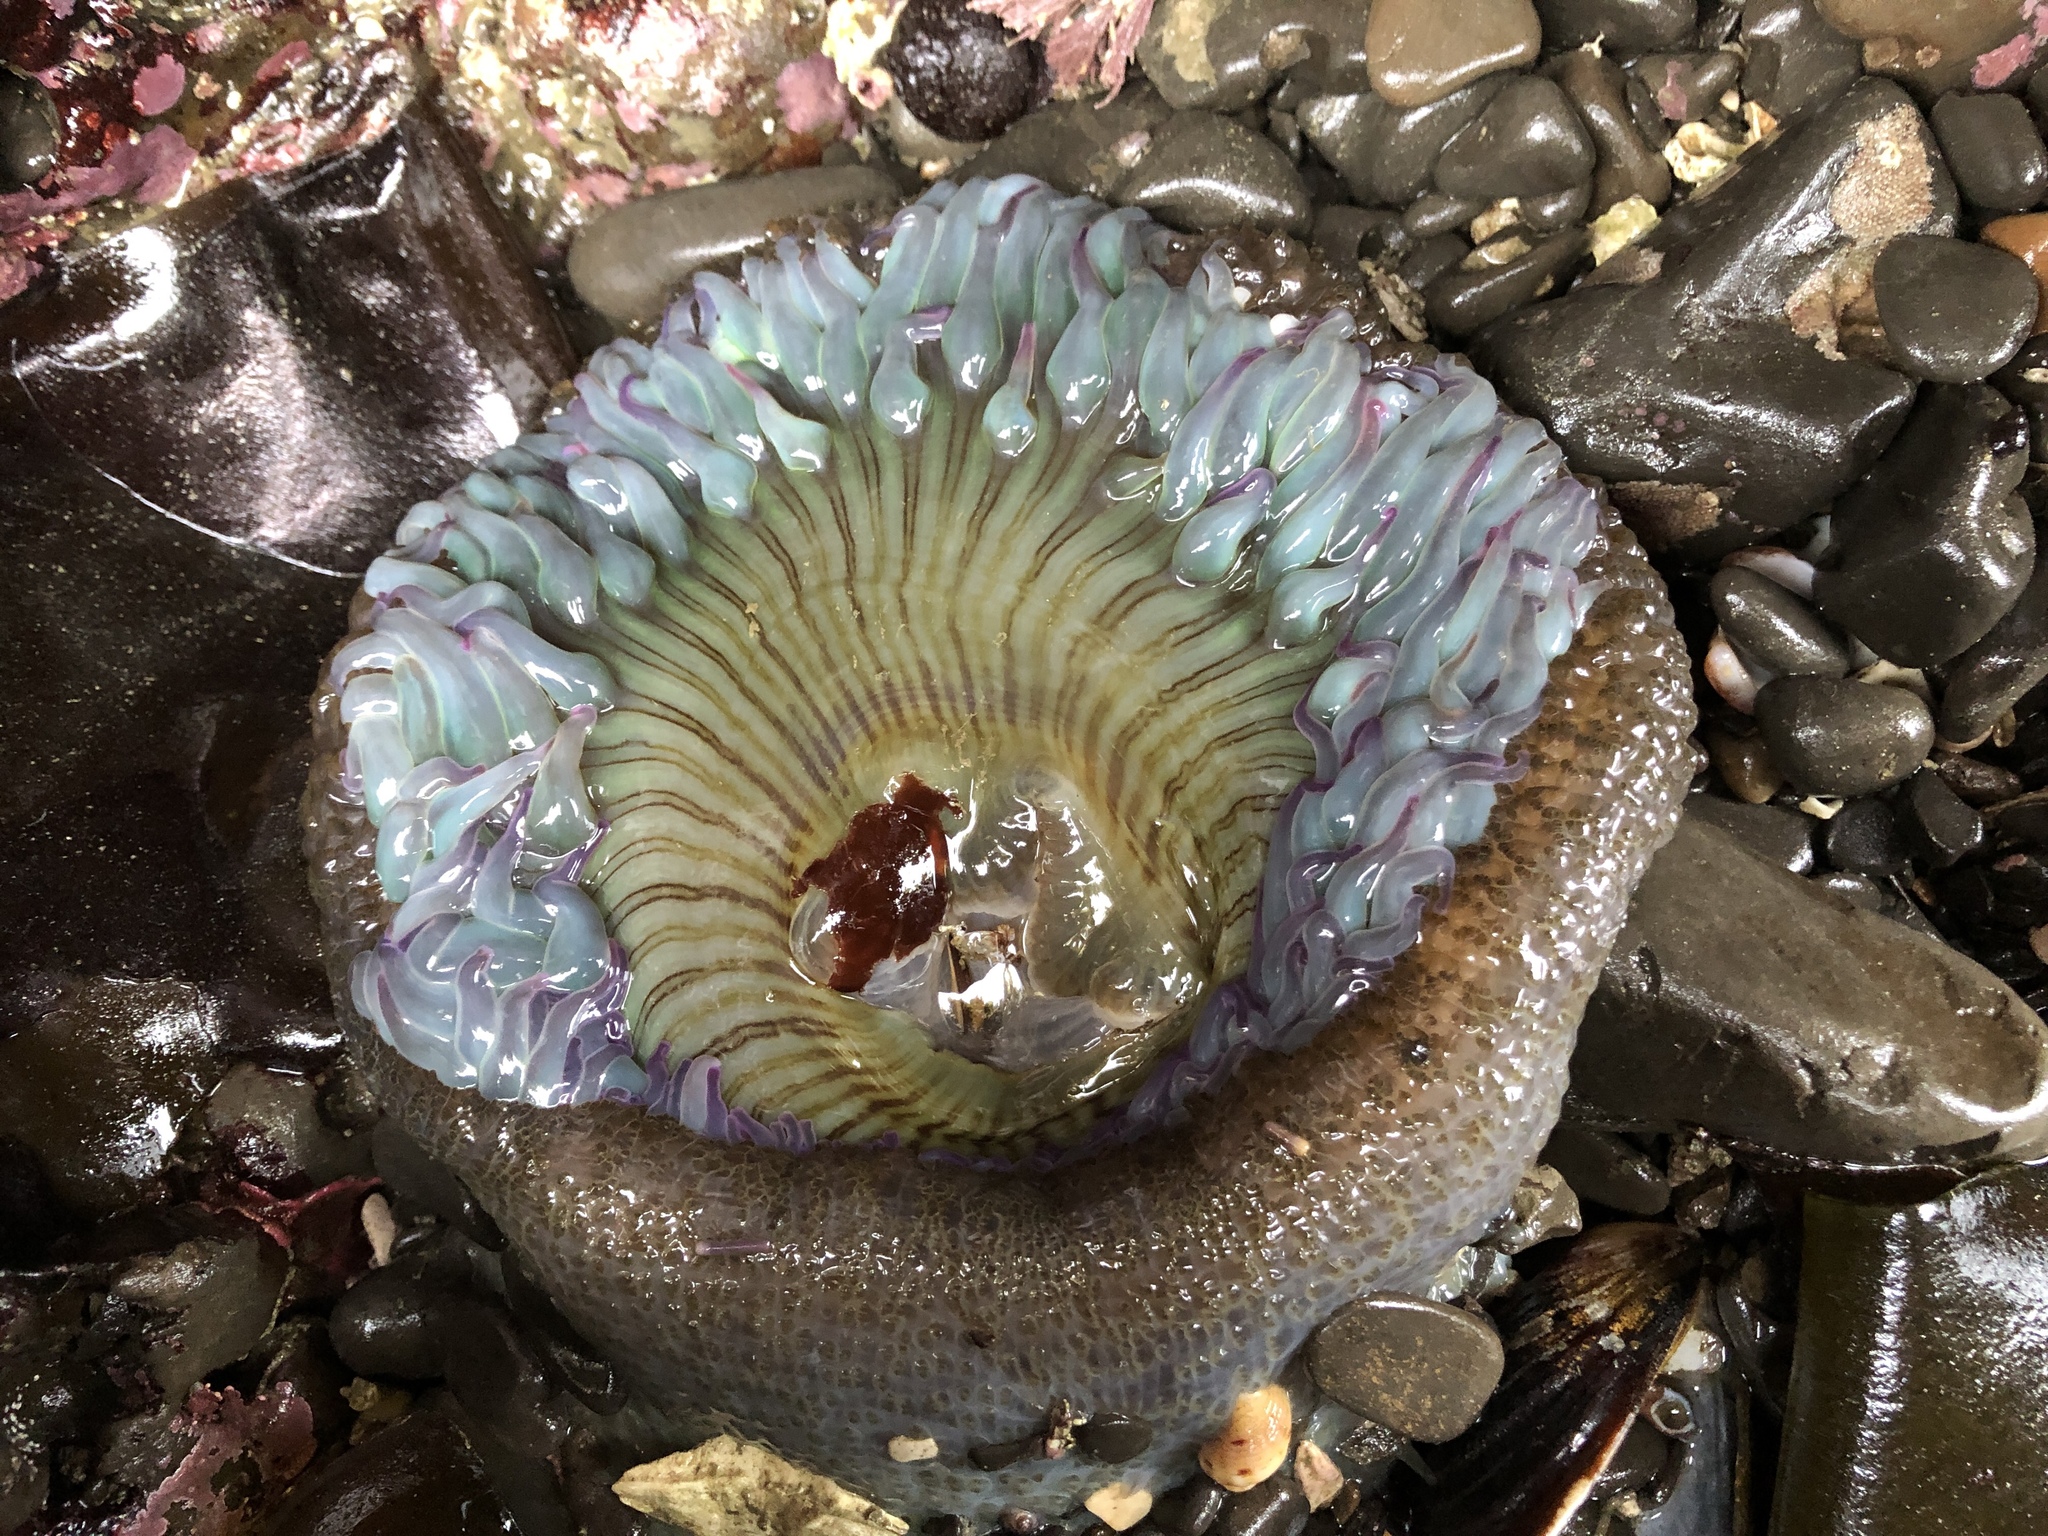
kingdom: Animalia
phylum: Cnidaria
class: Anthozoa
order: Actiniaria
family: Actiniidae
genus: Anthopleura
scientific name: Anthopleura sola
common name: Sun anemone
